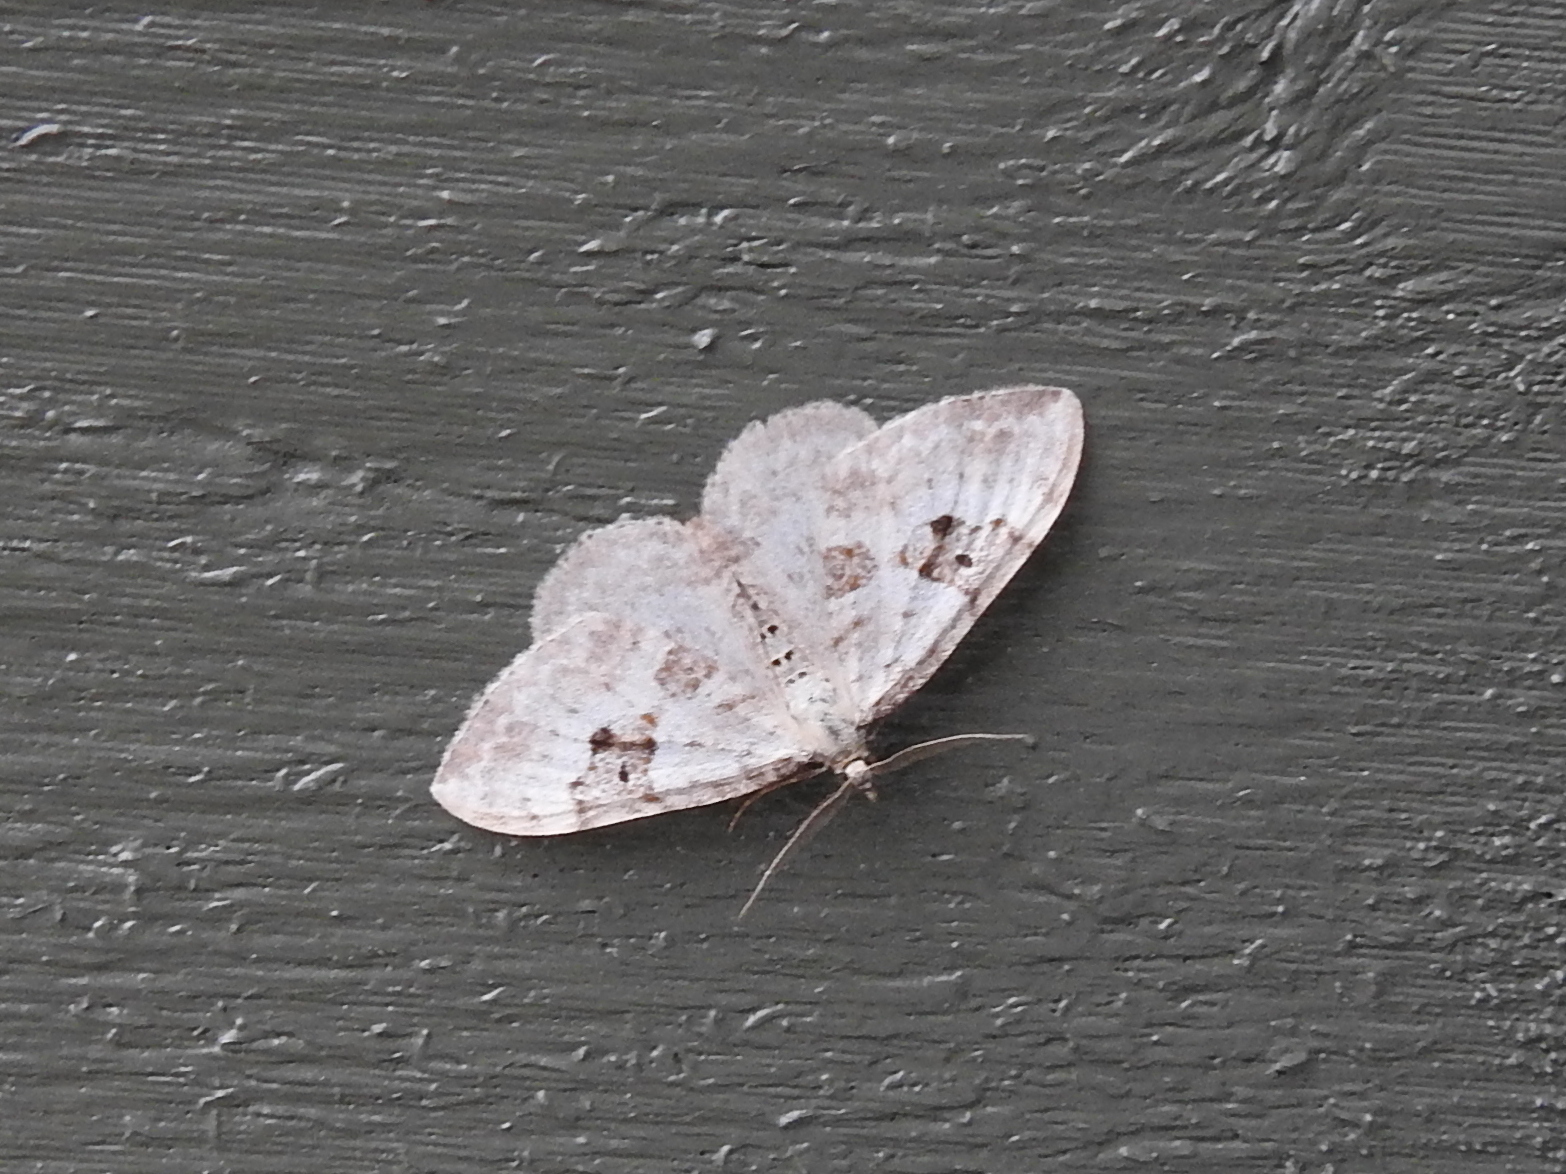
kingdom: Animalia
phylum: Arthropoda
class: Insecta
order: Lepidoptera
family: Geometridae
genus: Xanthorhoe
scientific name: Xanthorhoe montanata
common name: Silver-ground carpet
